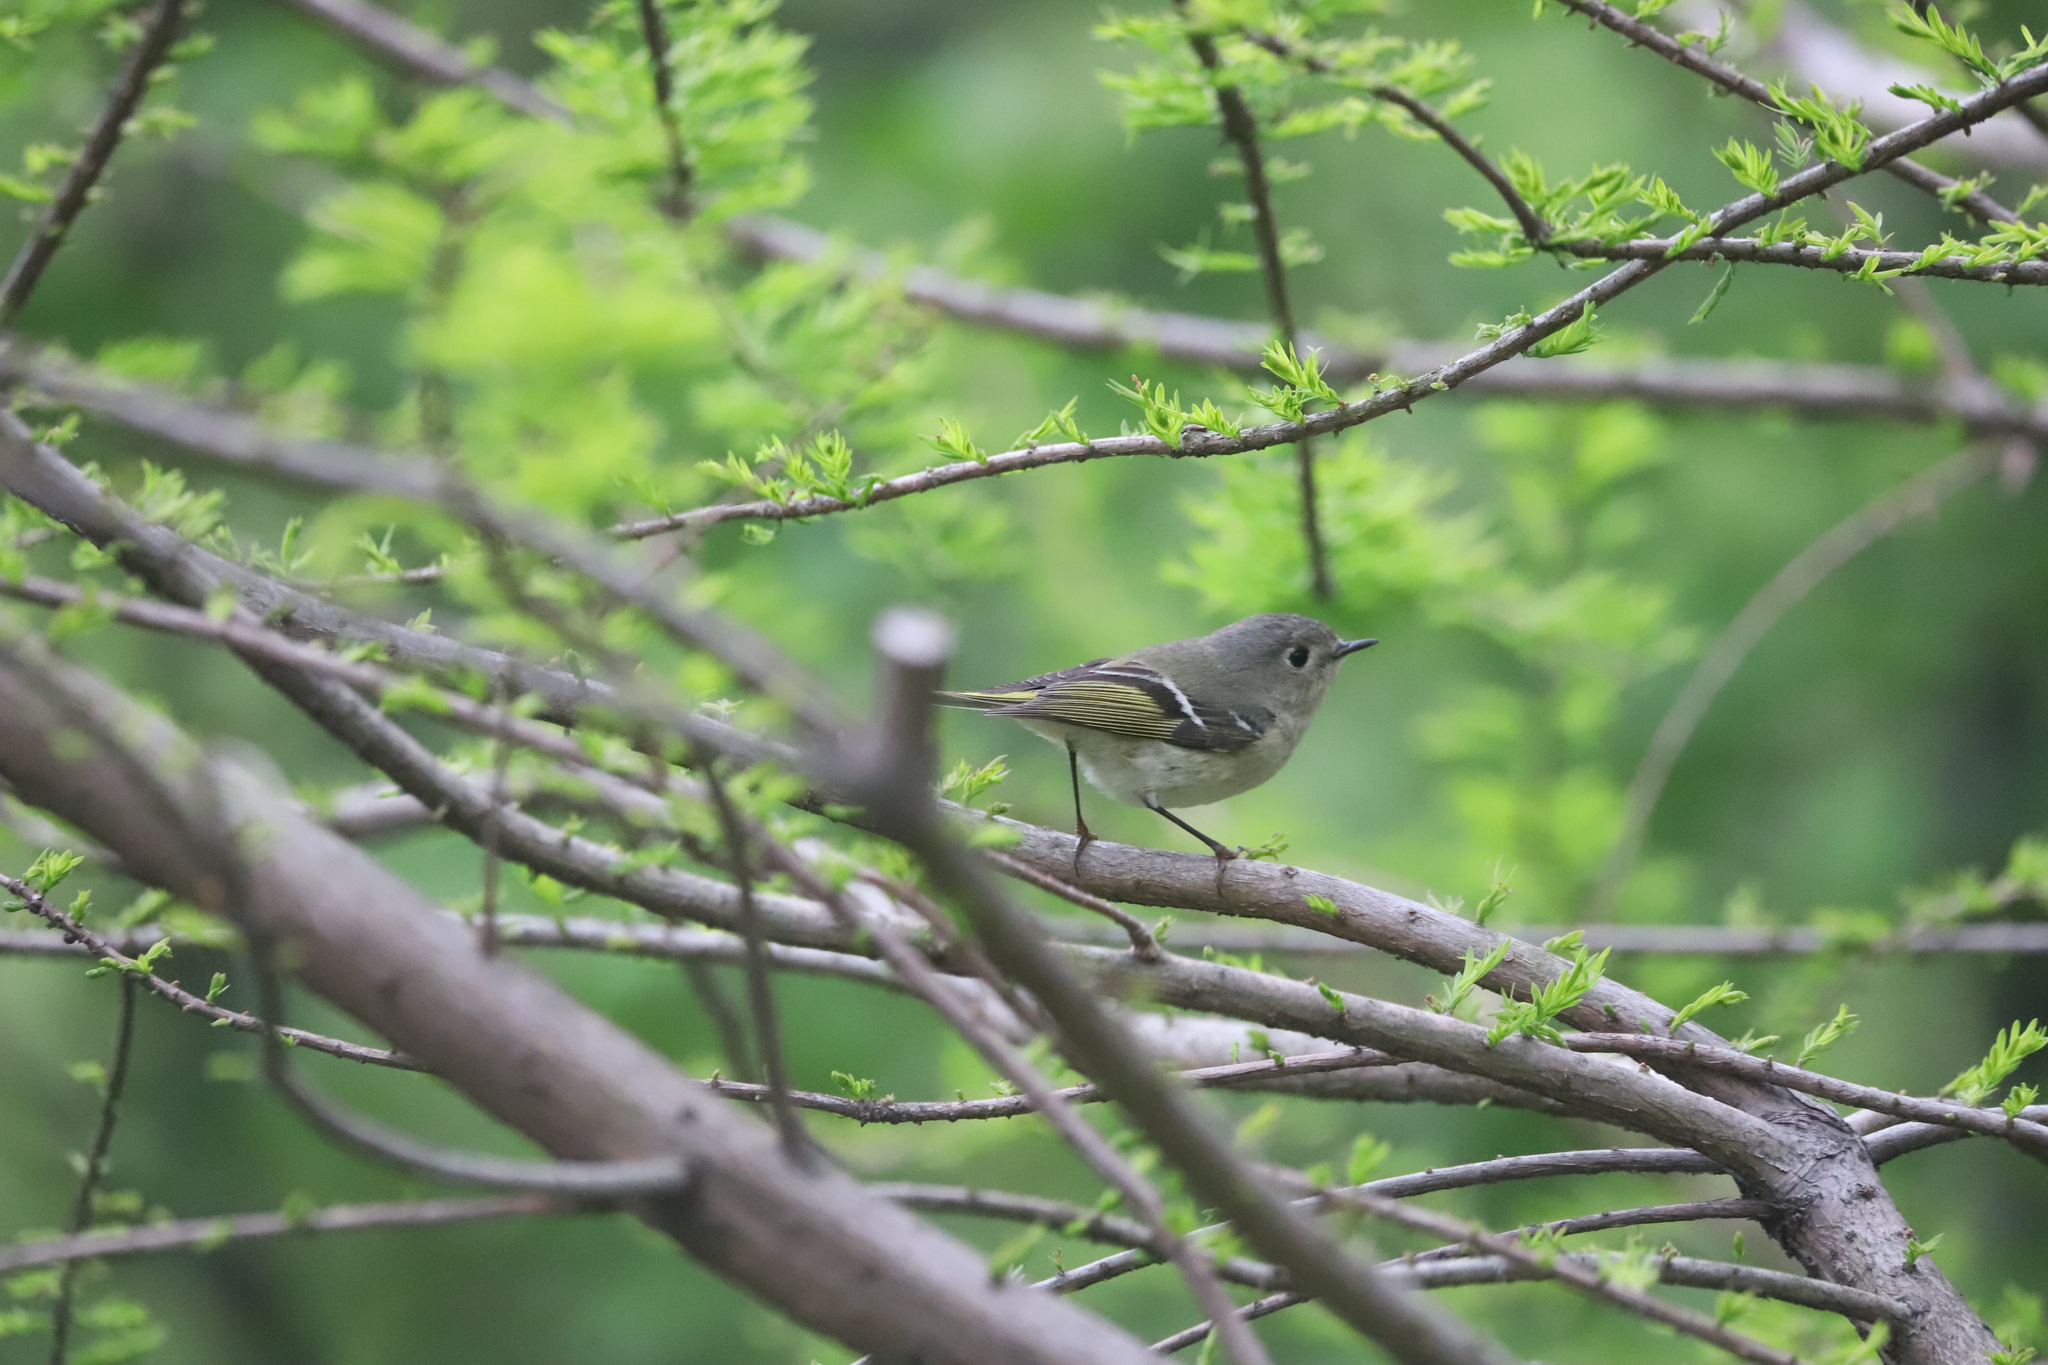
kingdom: Animalia
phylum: Chordata
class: Aves
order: Passeriformes
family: Regulidae
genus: Regulus
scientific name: Regulus calendula
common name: Ruby-crowned kinglet
